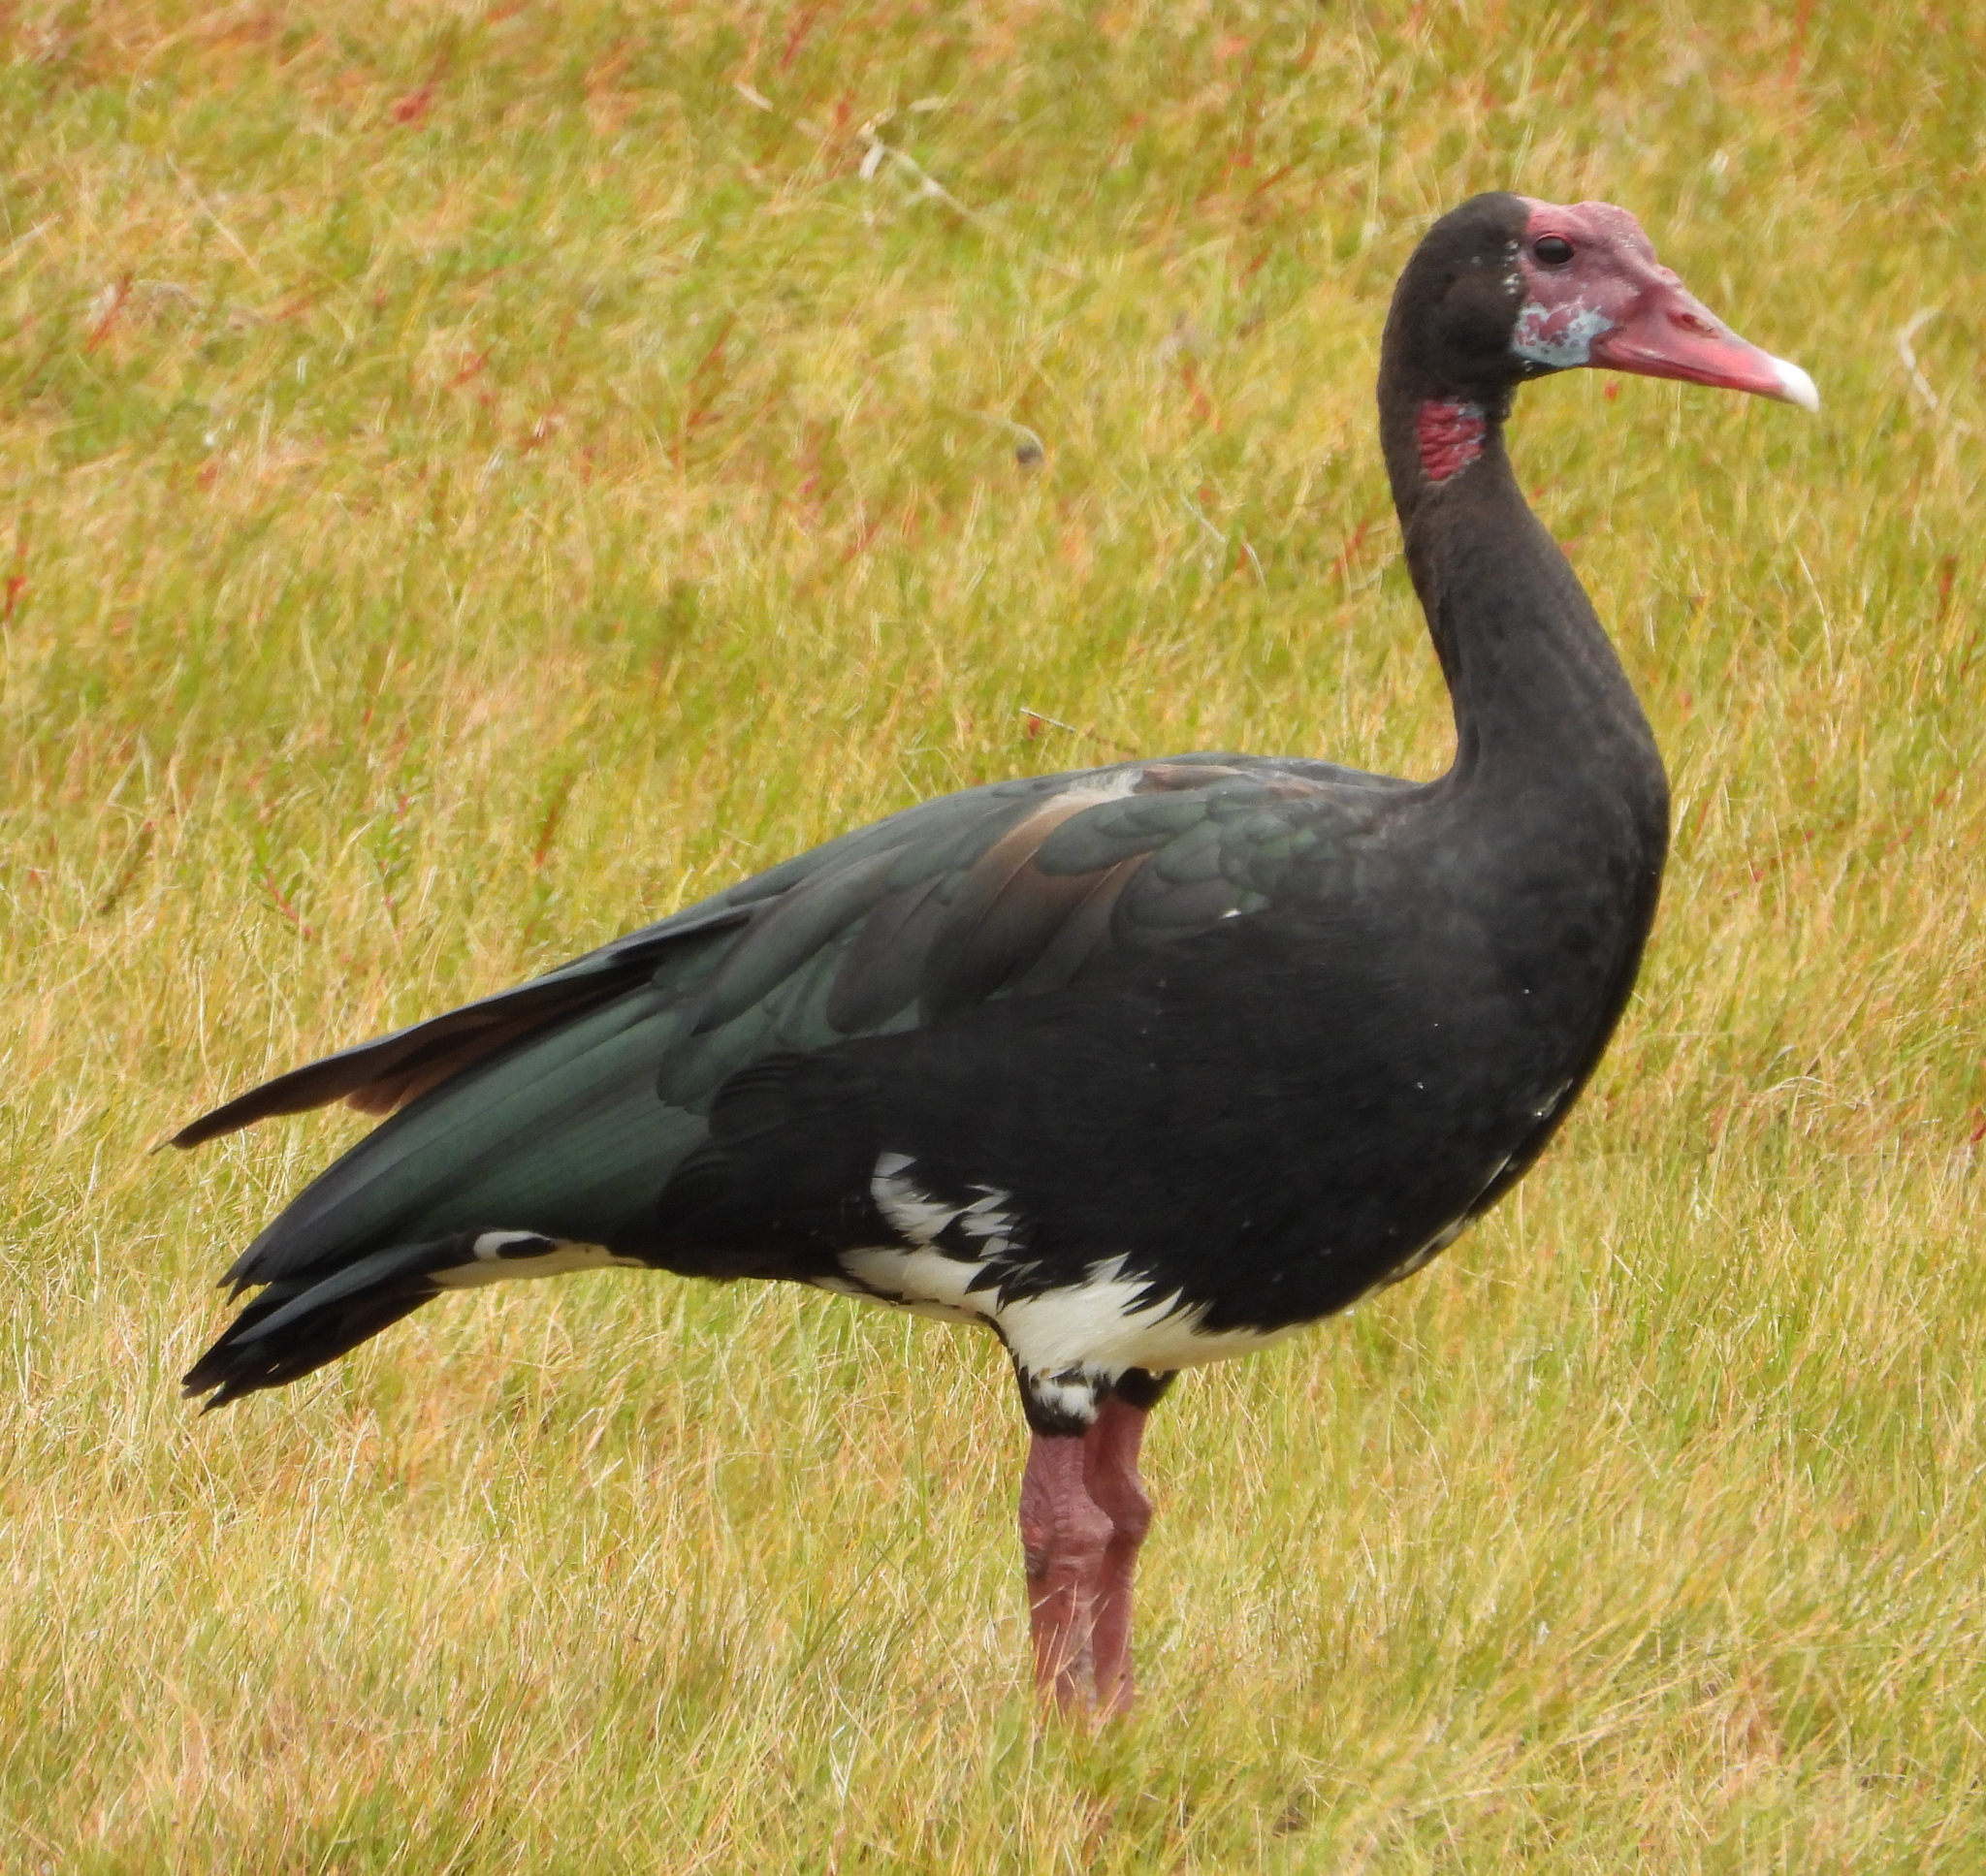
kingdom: Animalia
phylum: Chordata
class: Aves
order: Anseriformes
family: Anatidae
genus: Plectropterus
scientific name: Plectropterus gambensis
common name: Spur-winged goose
